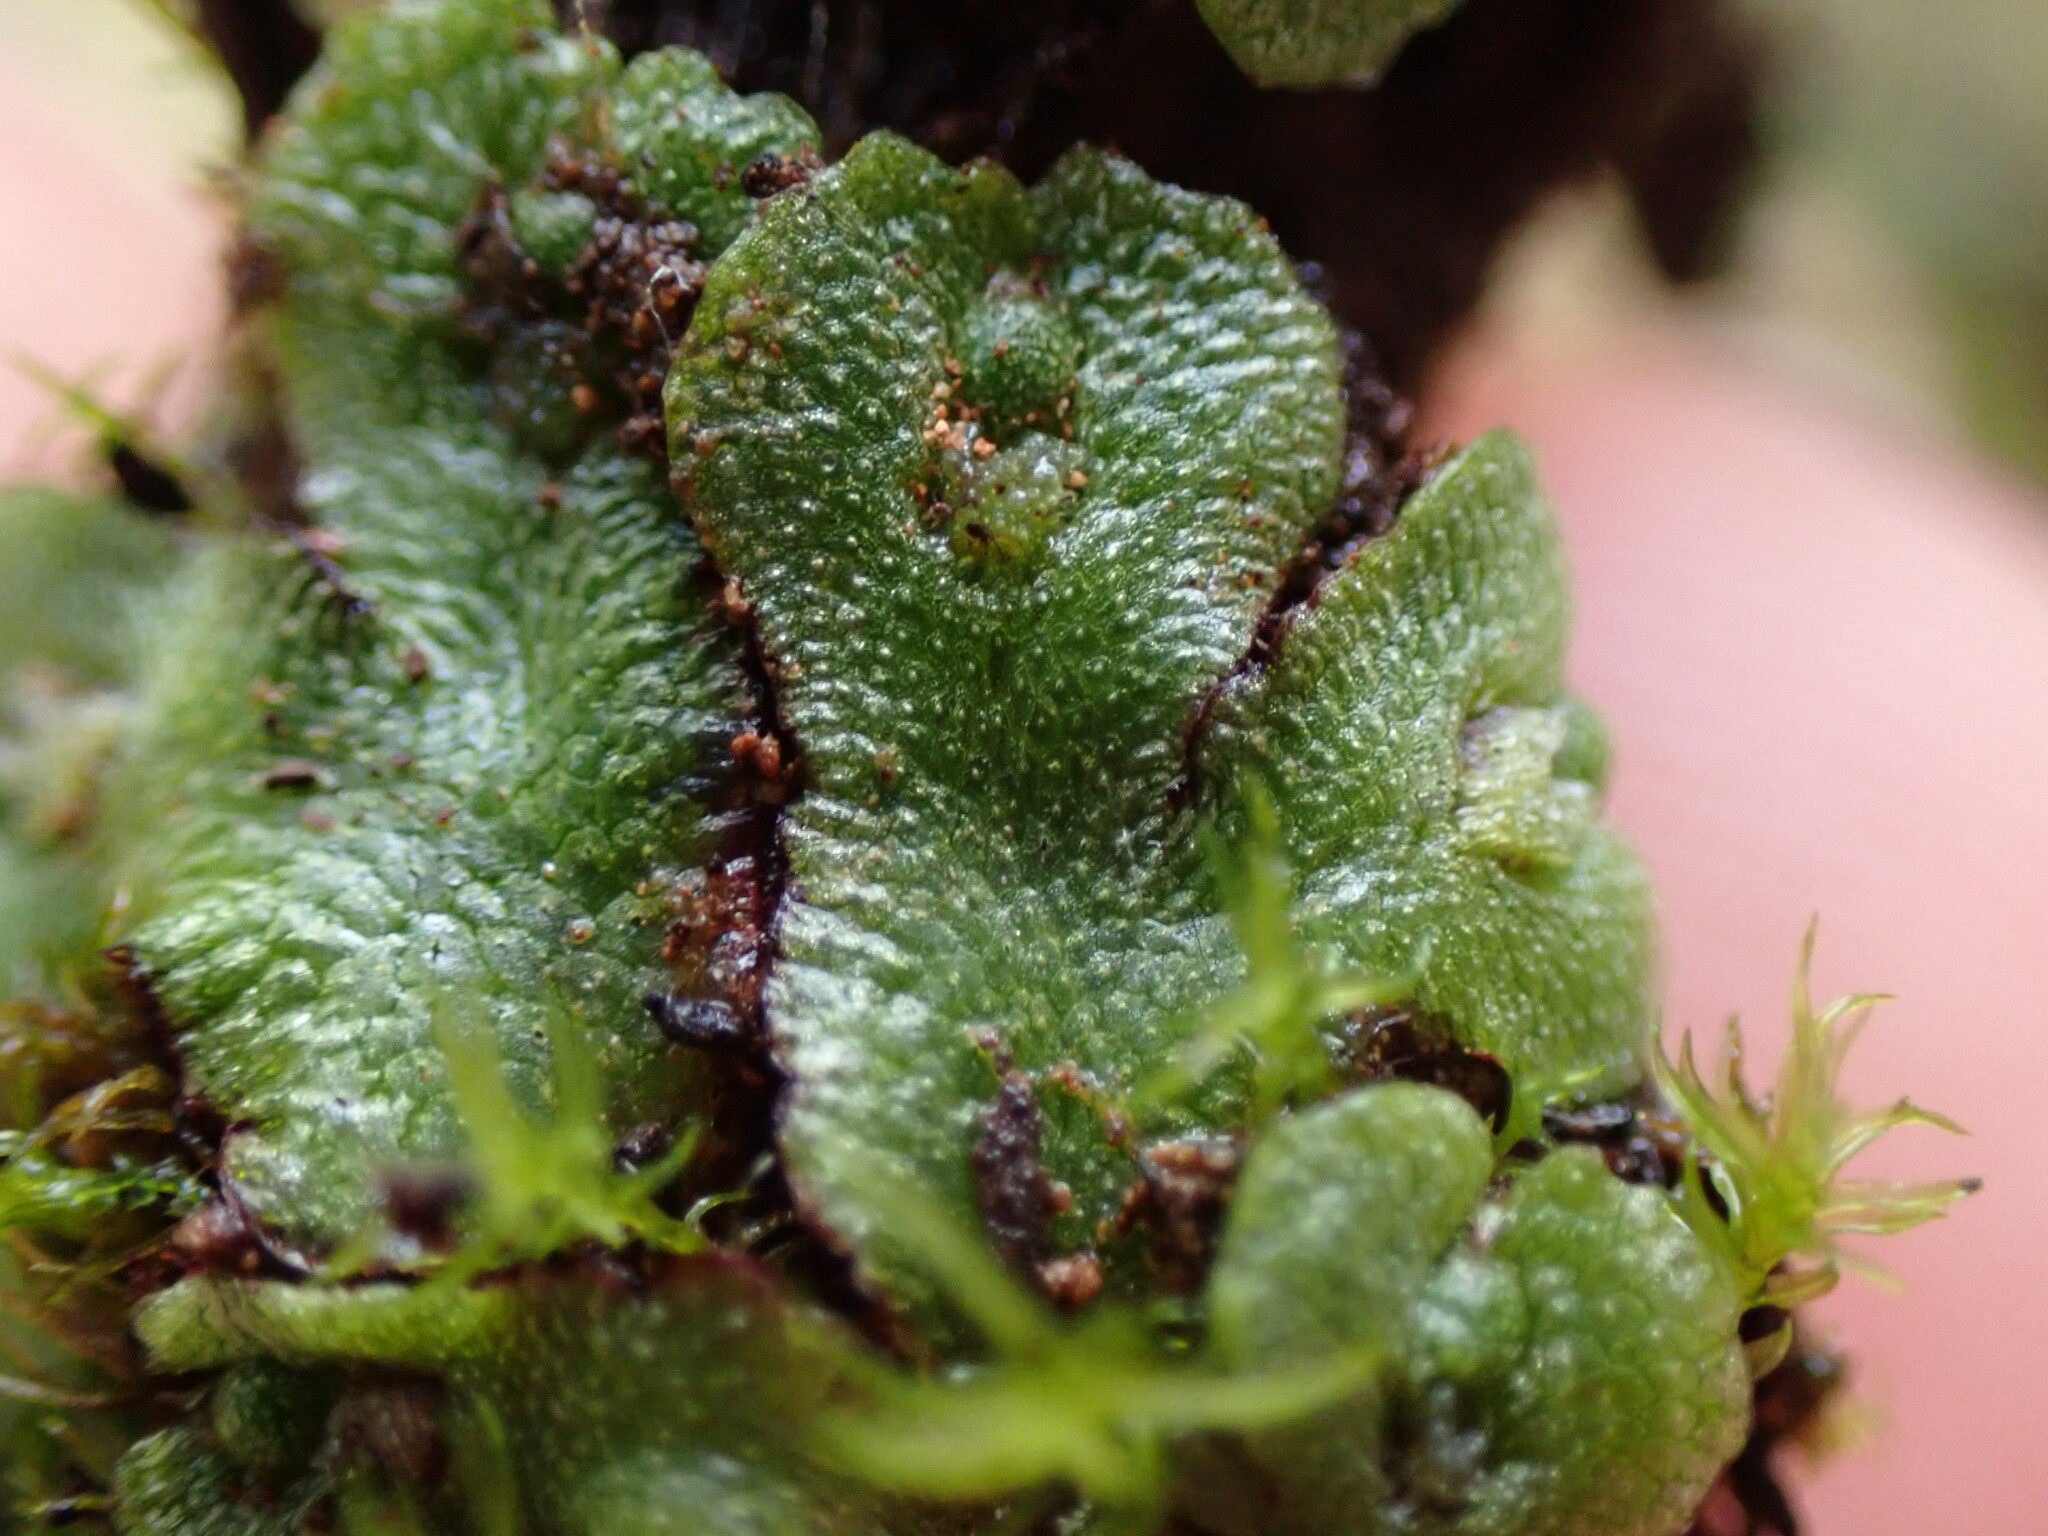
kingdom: Plantae
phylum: Marchantiophyta
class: Marchantiopsida
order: Marchantiales
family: Aytoniaceae
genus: Mannia
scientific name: Mannia gracilis
